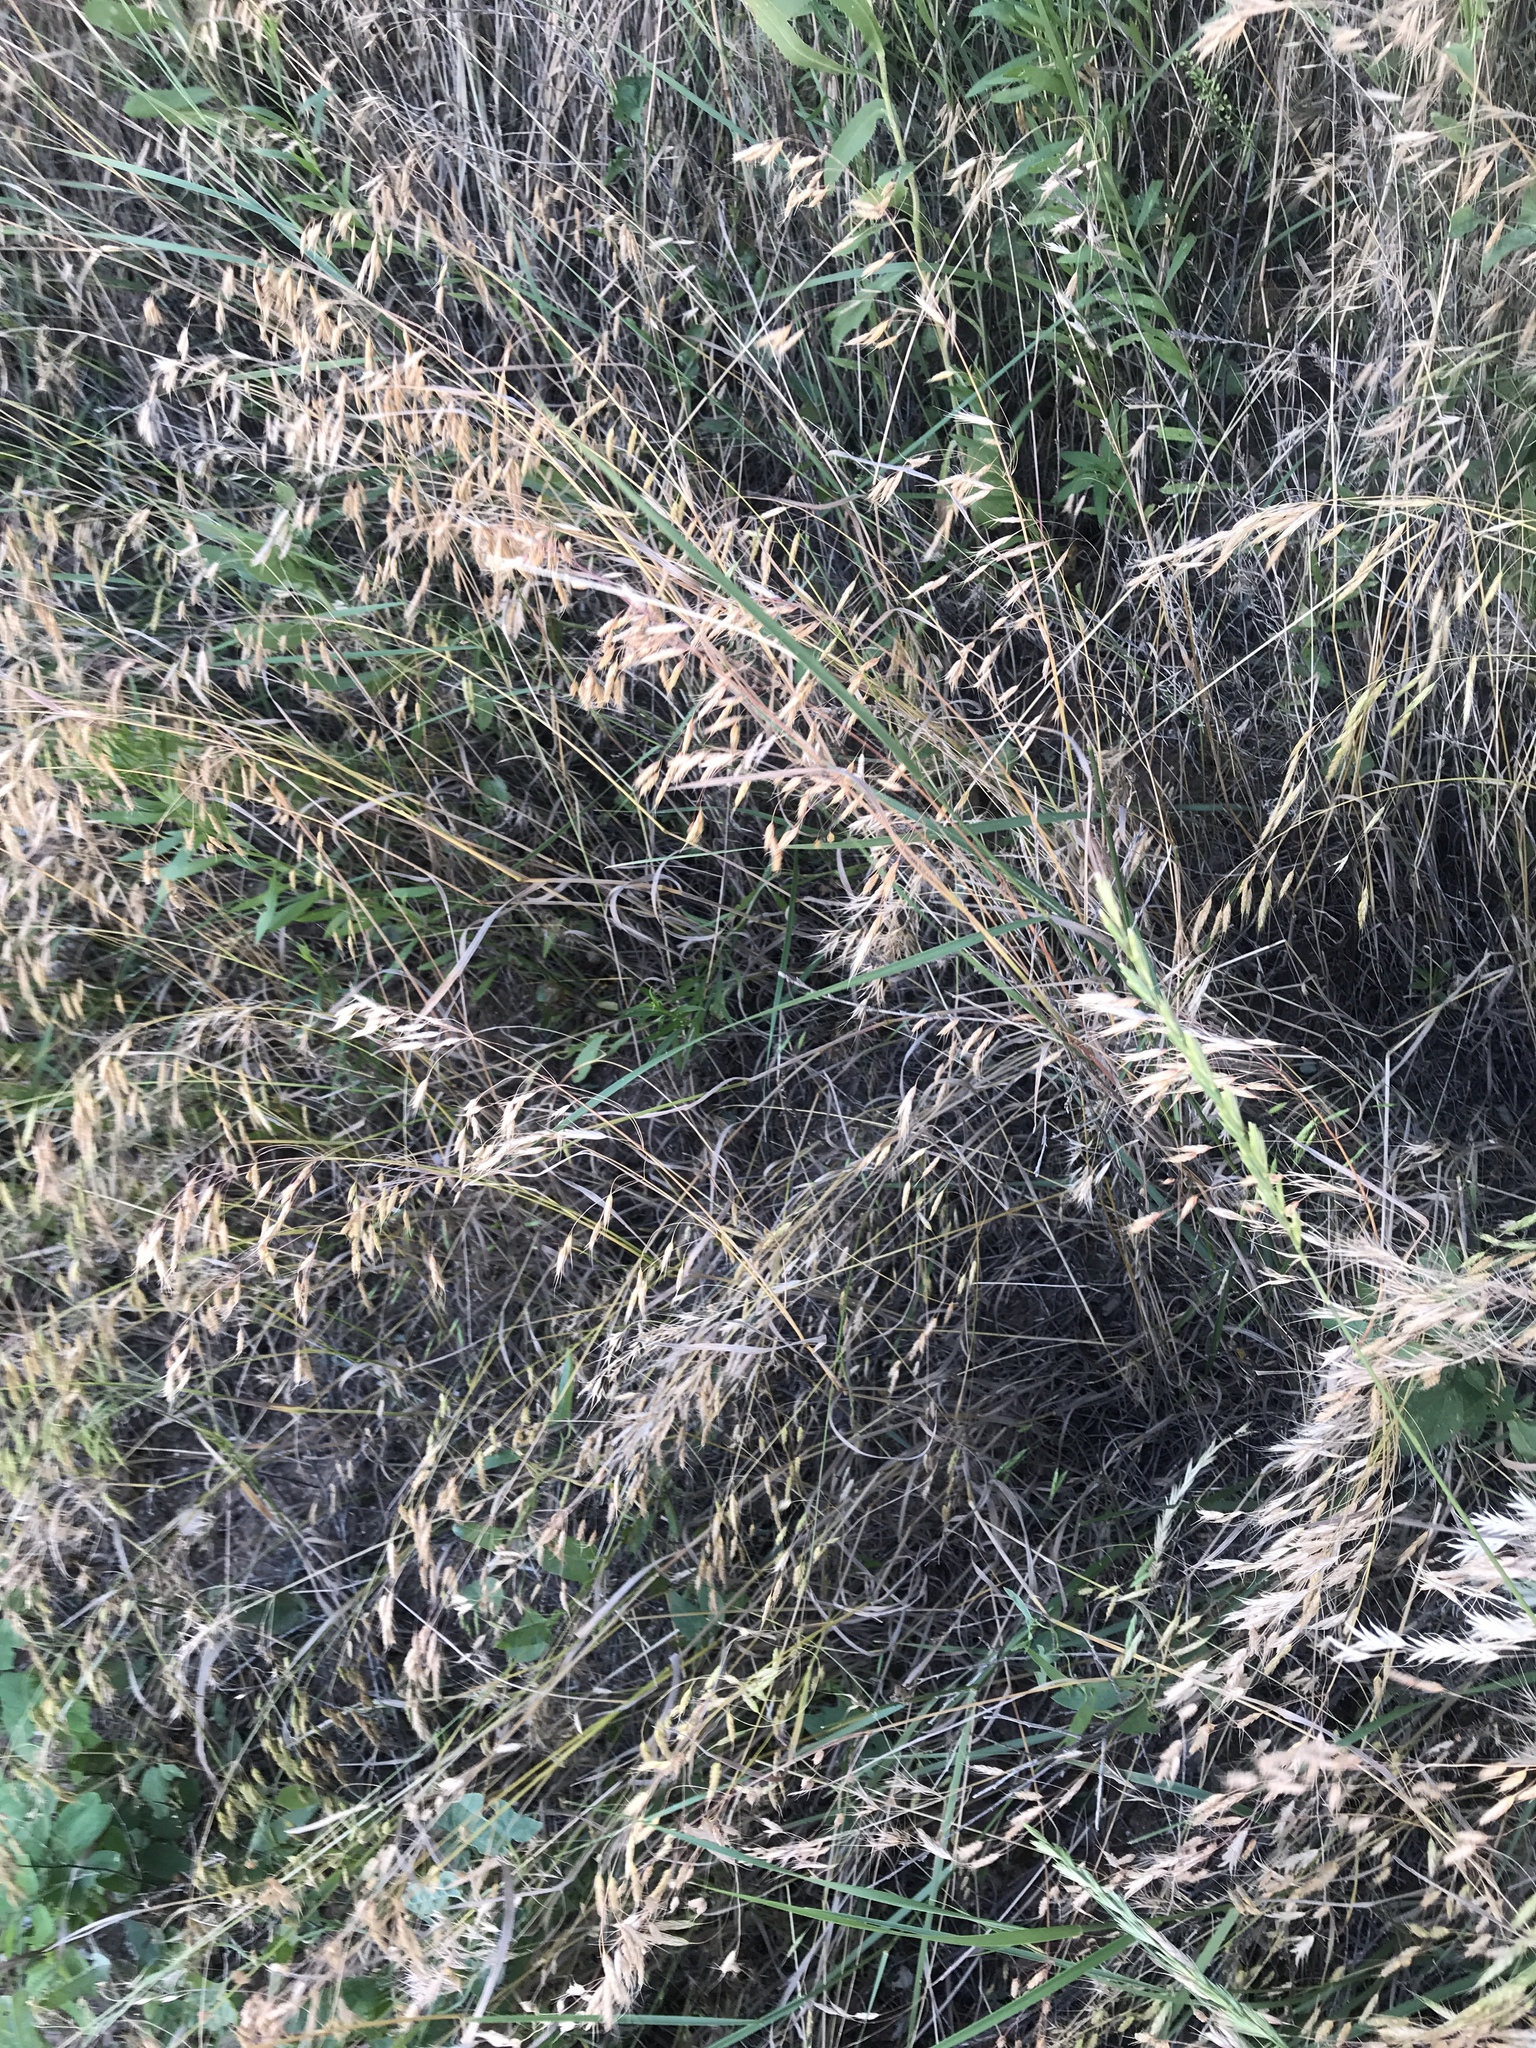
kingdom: Plantae
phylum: Tracheophyta
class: Liliopsida
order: Poales
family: Poaceae
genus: Bromus
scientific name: Bromus japonicus
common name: Japanese brome
